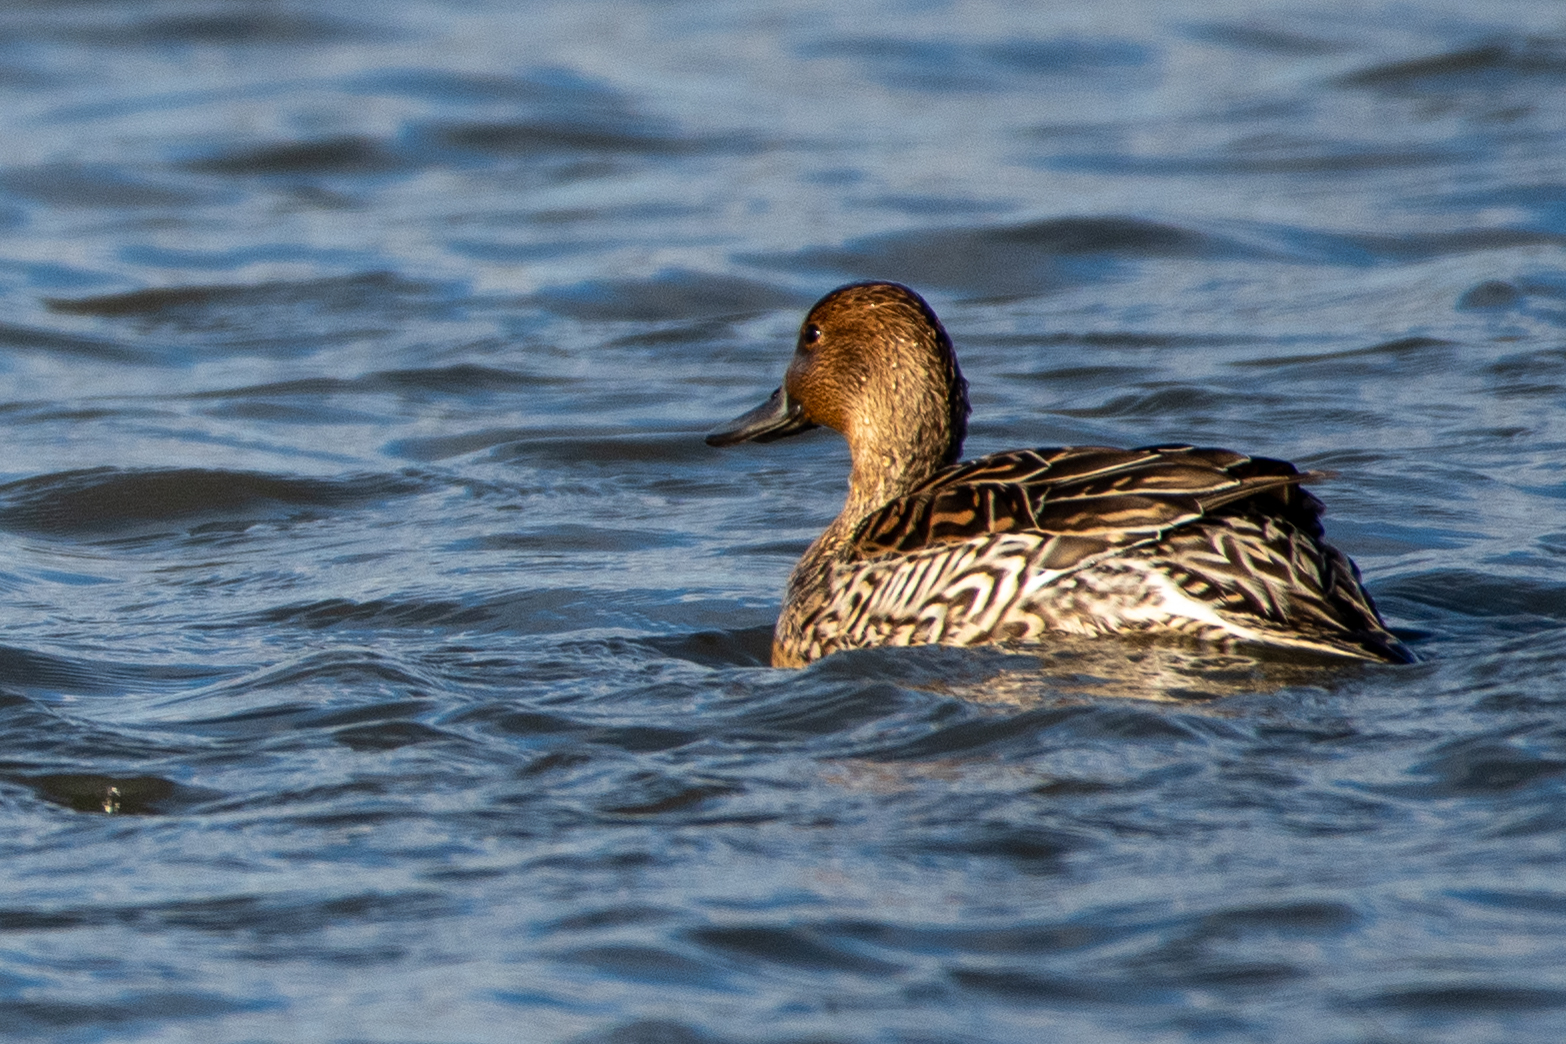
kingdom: Animalia
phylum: Chordata
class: Aves
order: Anseriformes
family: Anatidae
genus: Anas
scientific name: Anas acuta
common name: Northern pintail
